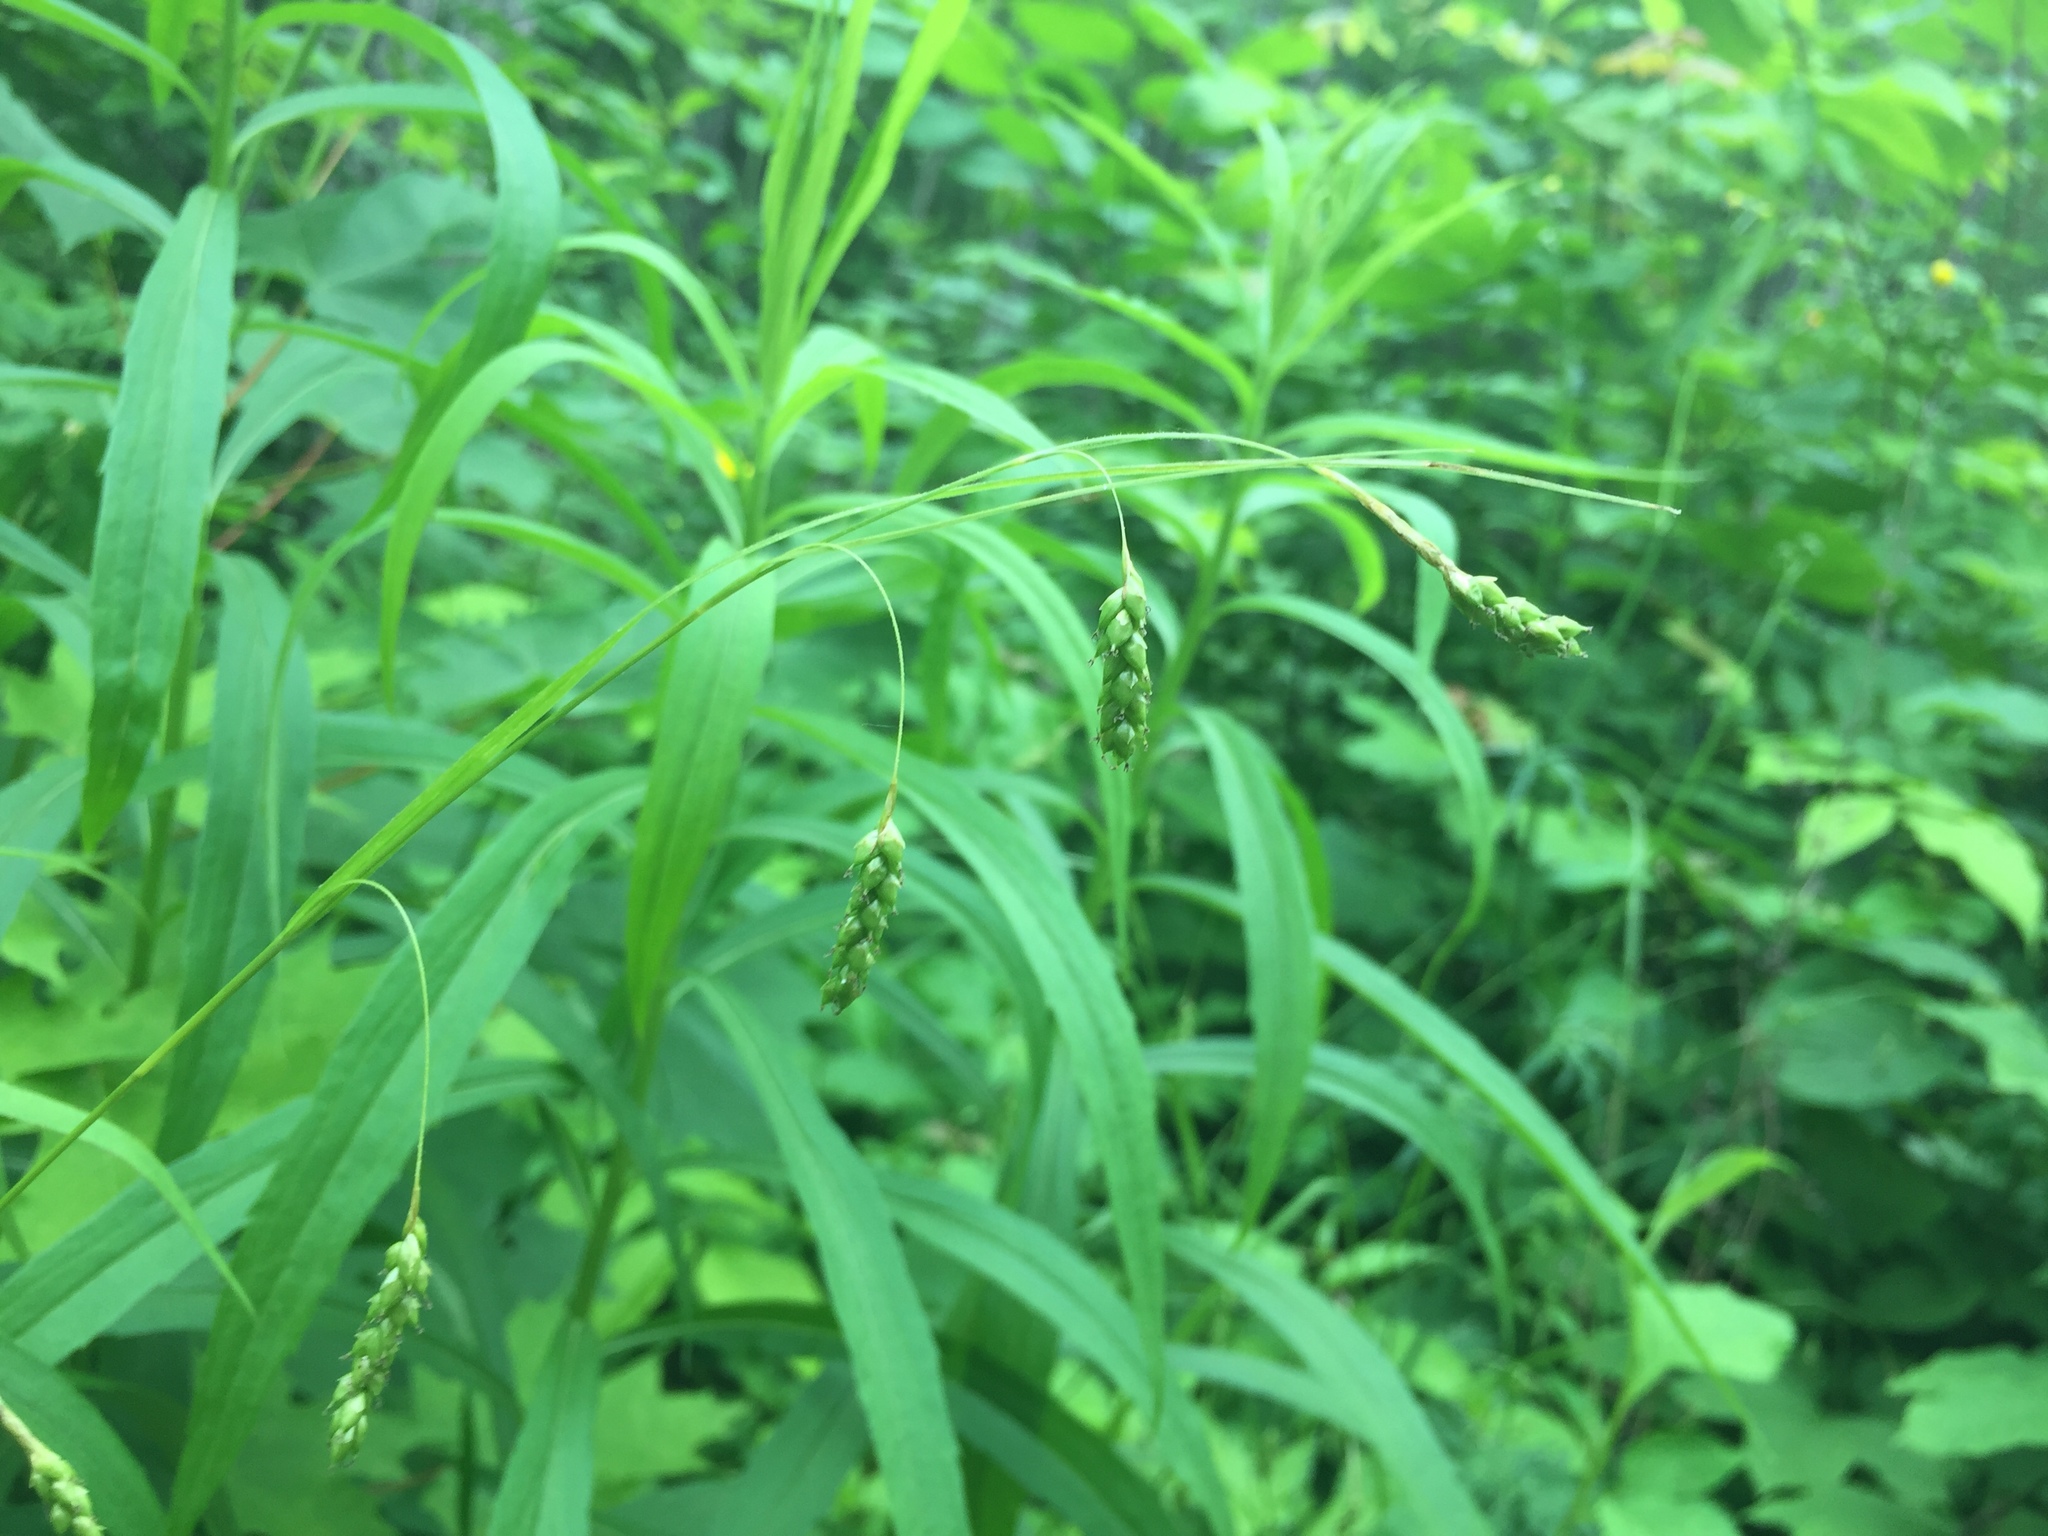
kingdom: Plantae
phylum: Tracheophyta
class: Liliopsida
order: Poales
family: Cyperaceae
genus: Carex
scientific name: Carex formosa
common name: Awnless graceful sedge
